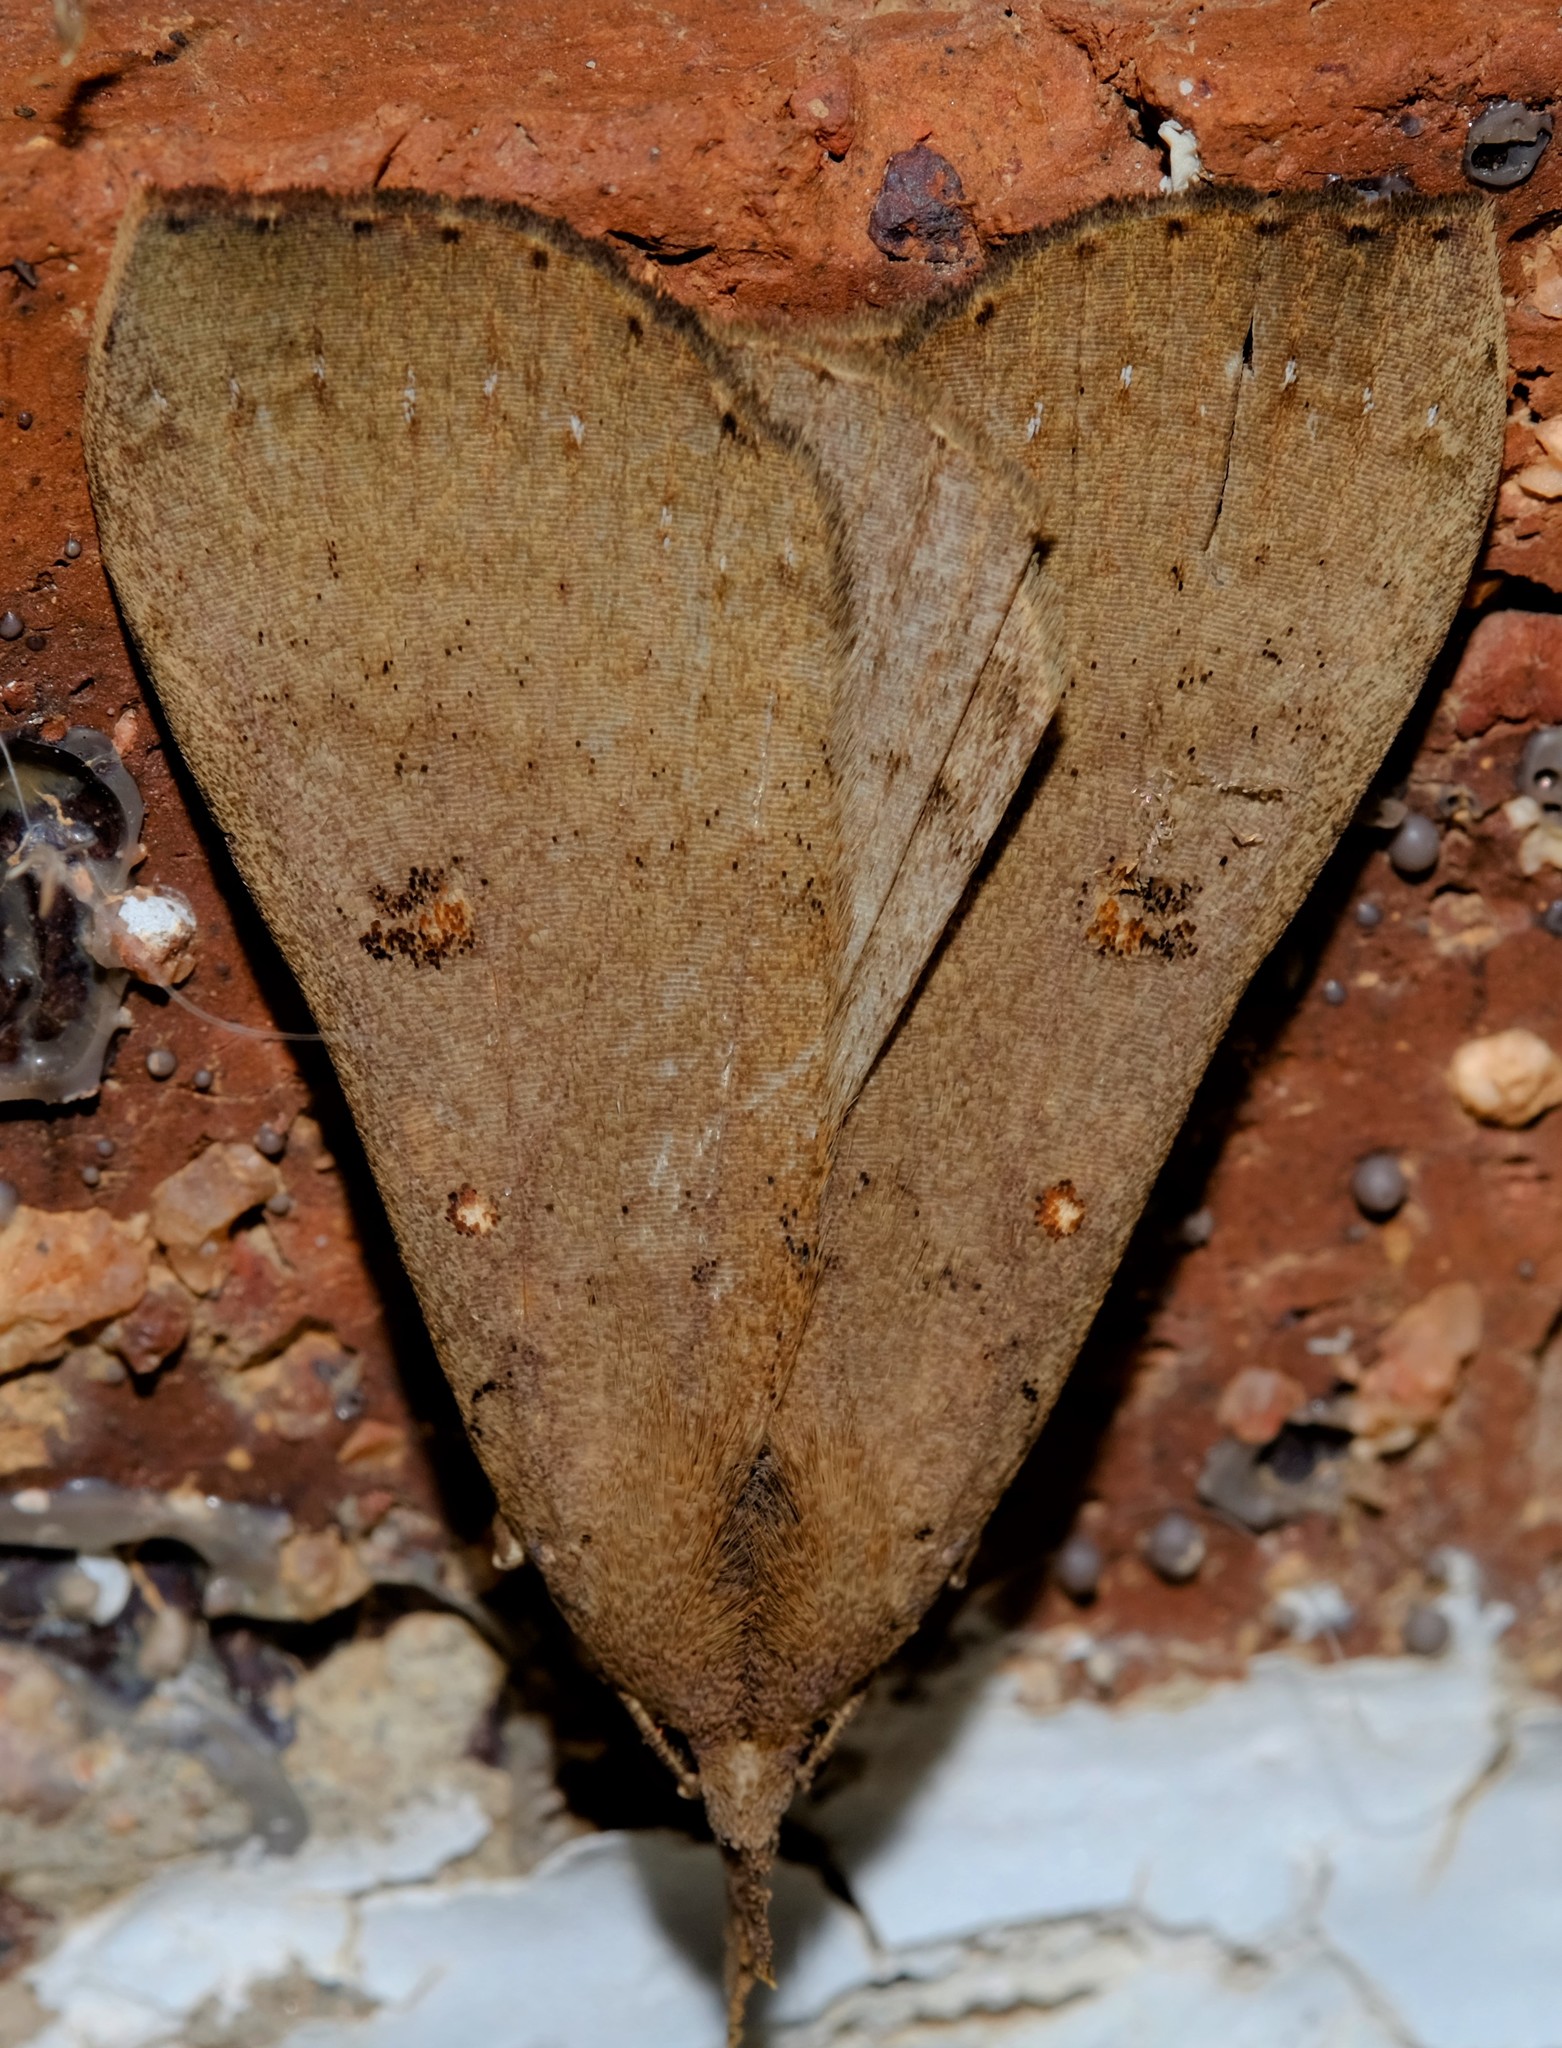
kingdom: Animalia
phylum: Arthropoda
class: Insecta
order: Lepidoptera
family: Erebidae
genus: Rhapsa
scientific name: Rhapsa suscitatalis
